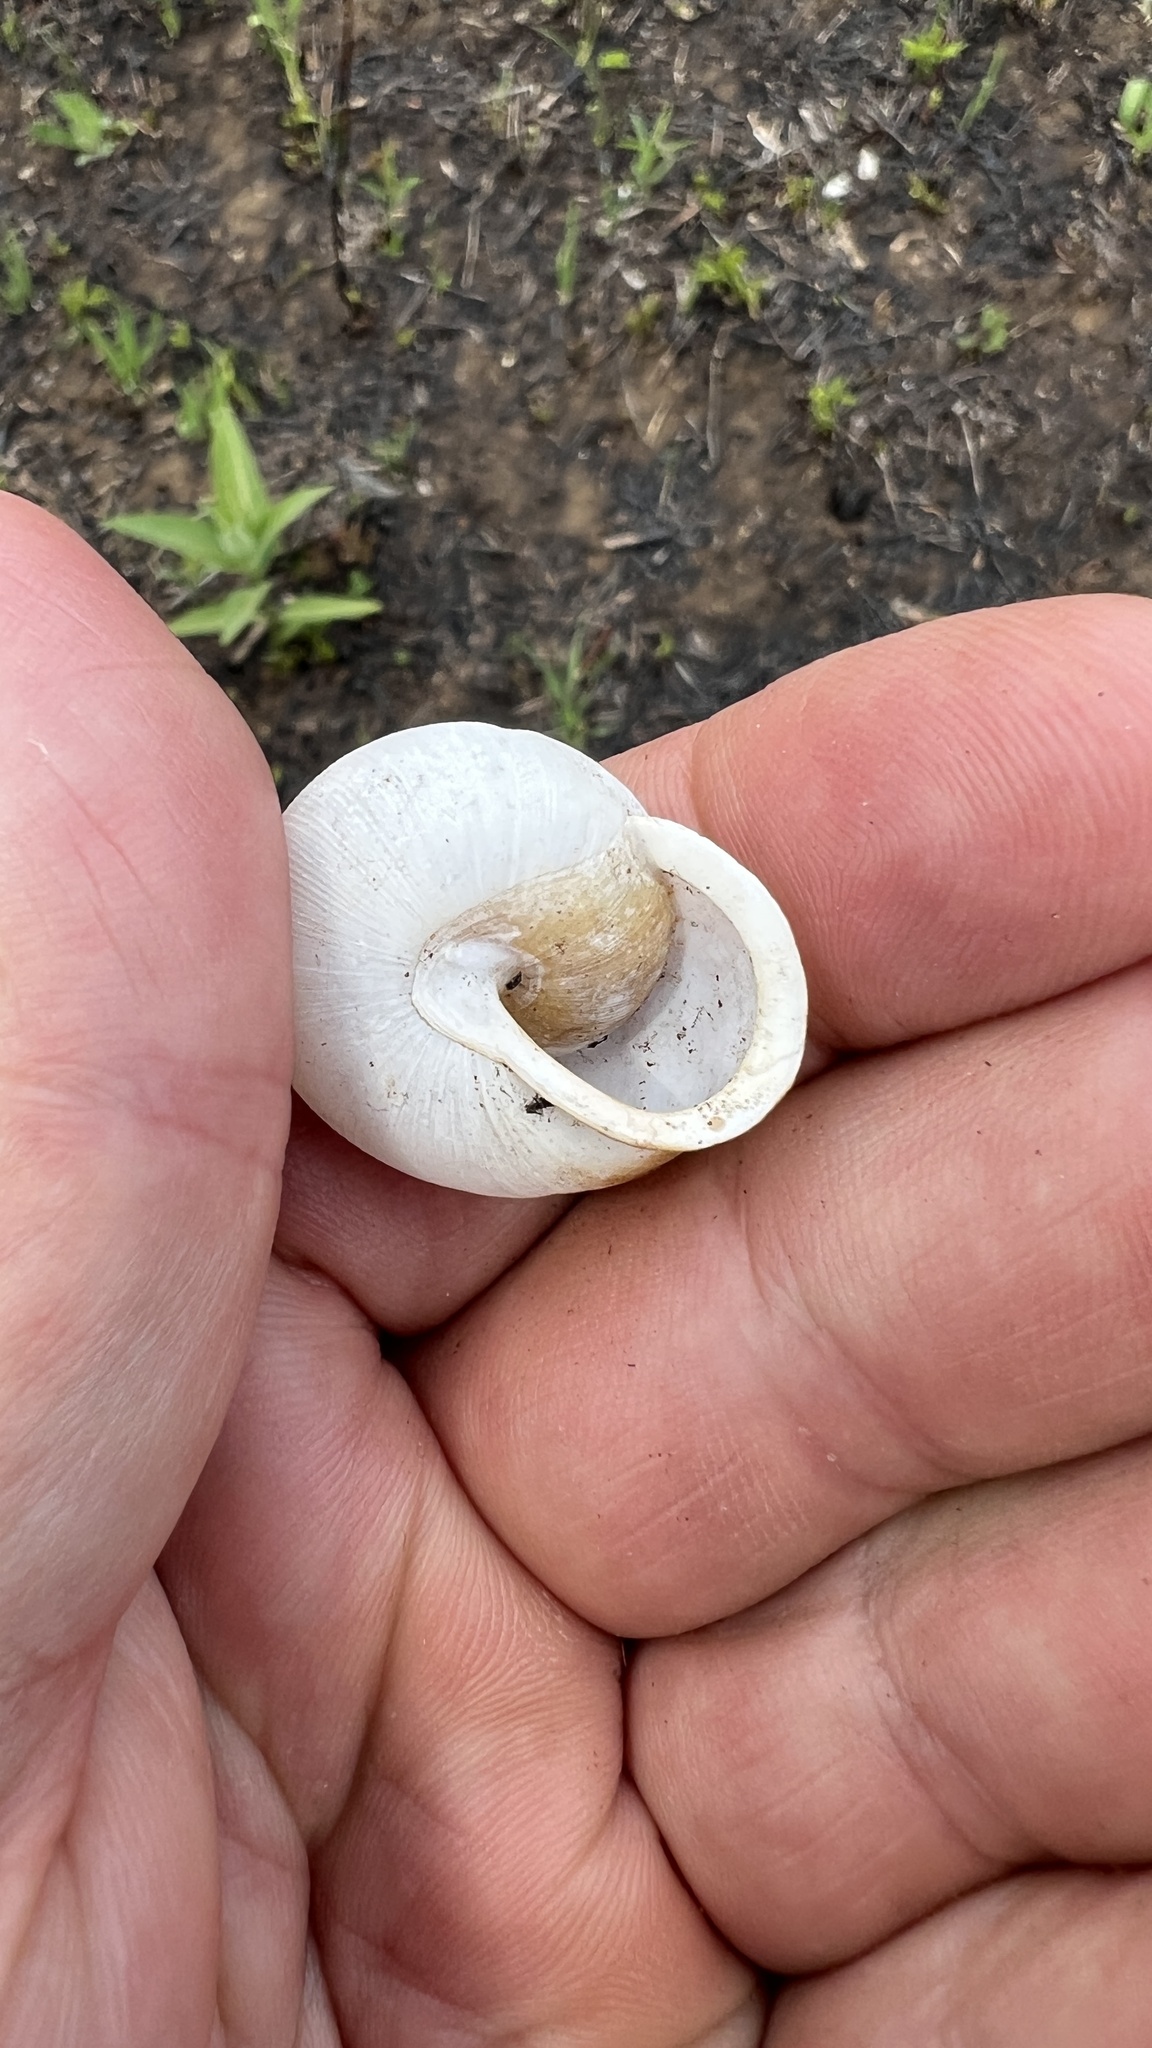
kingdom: Animalia
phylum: Mollusca
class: Gastropoda
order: Stylommatophora
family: Polygyridae
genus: Neohelix
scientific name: Neohelix albolabris
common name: Eastern whitelip
